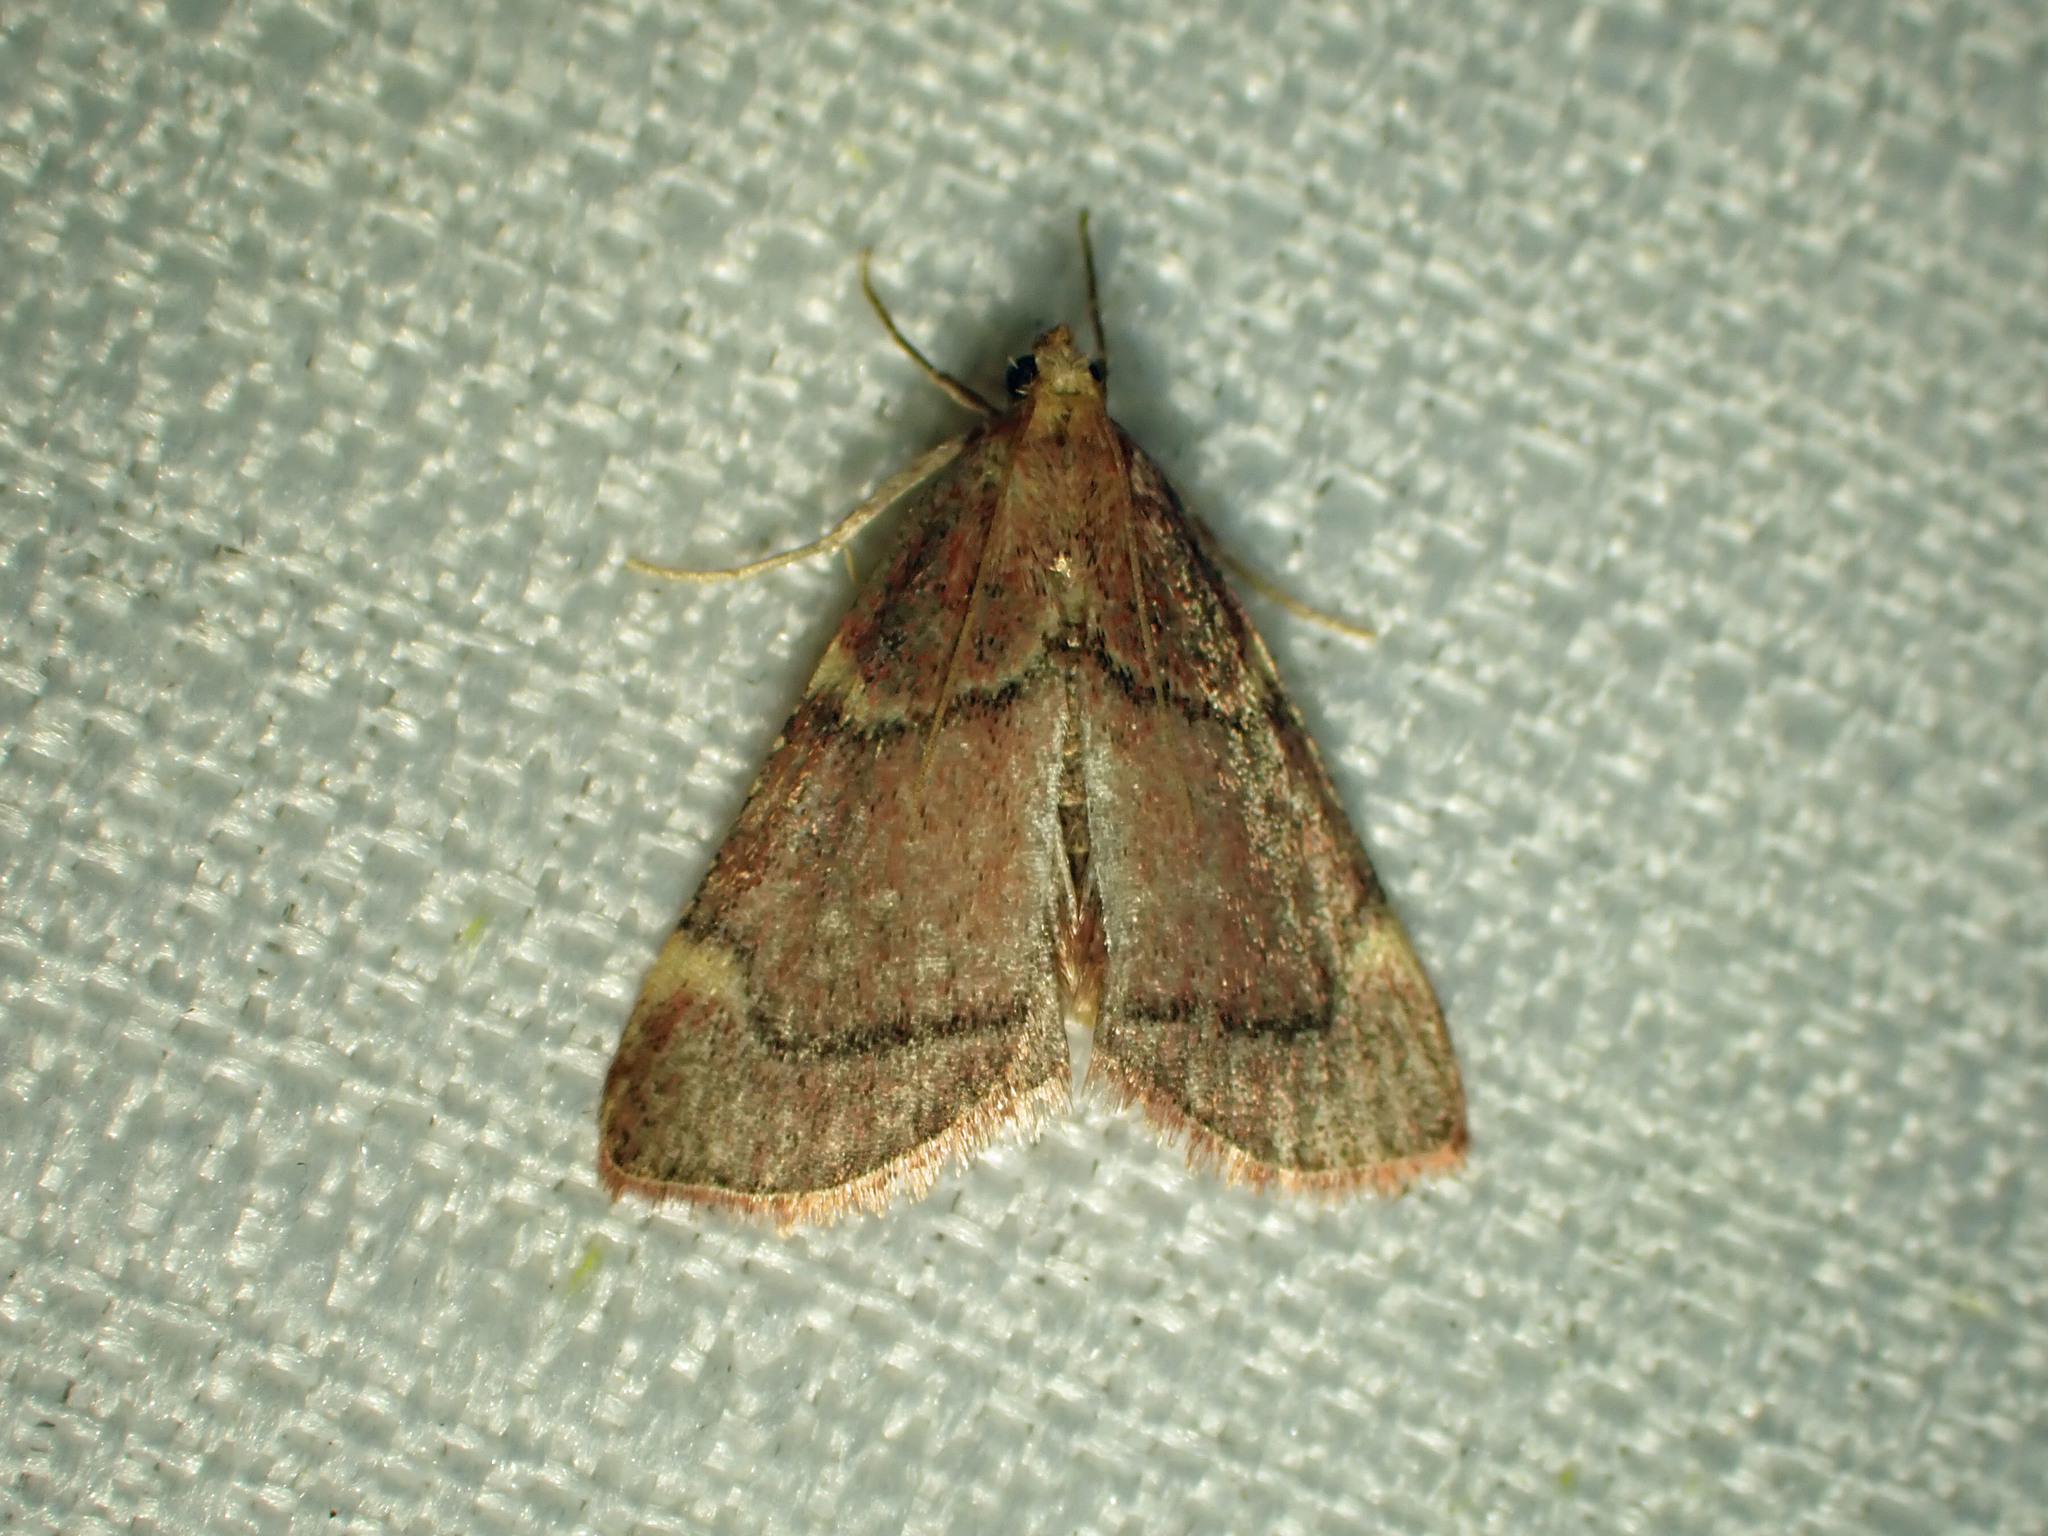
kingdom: Animalia
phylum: Arthropoda
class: Insecta
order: Lepidoptera
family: Pyralidae
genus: Hypsopygia
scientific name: Hypsopygia thymetusalis
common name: Spruce needleworm moth
